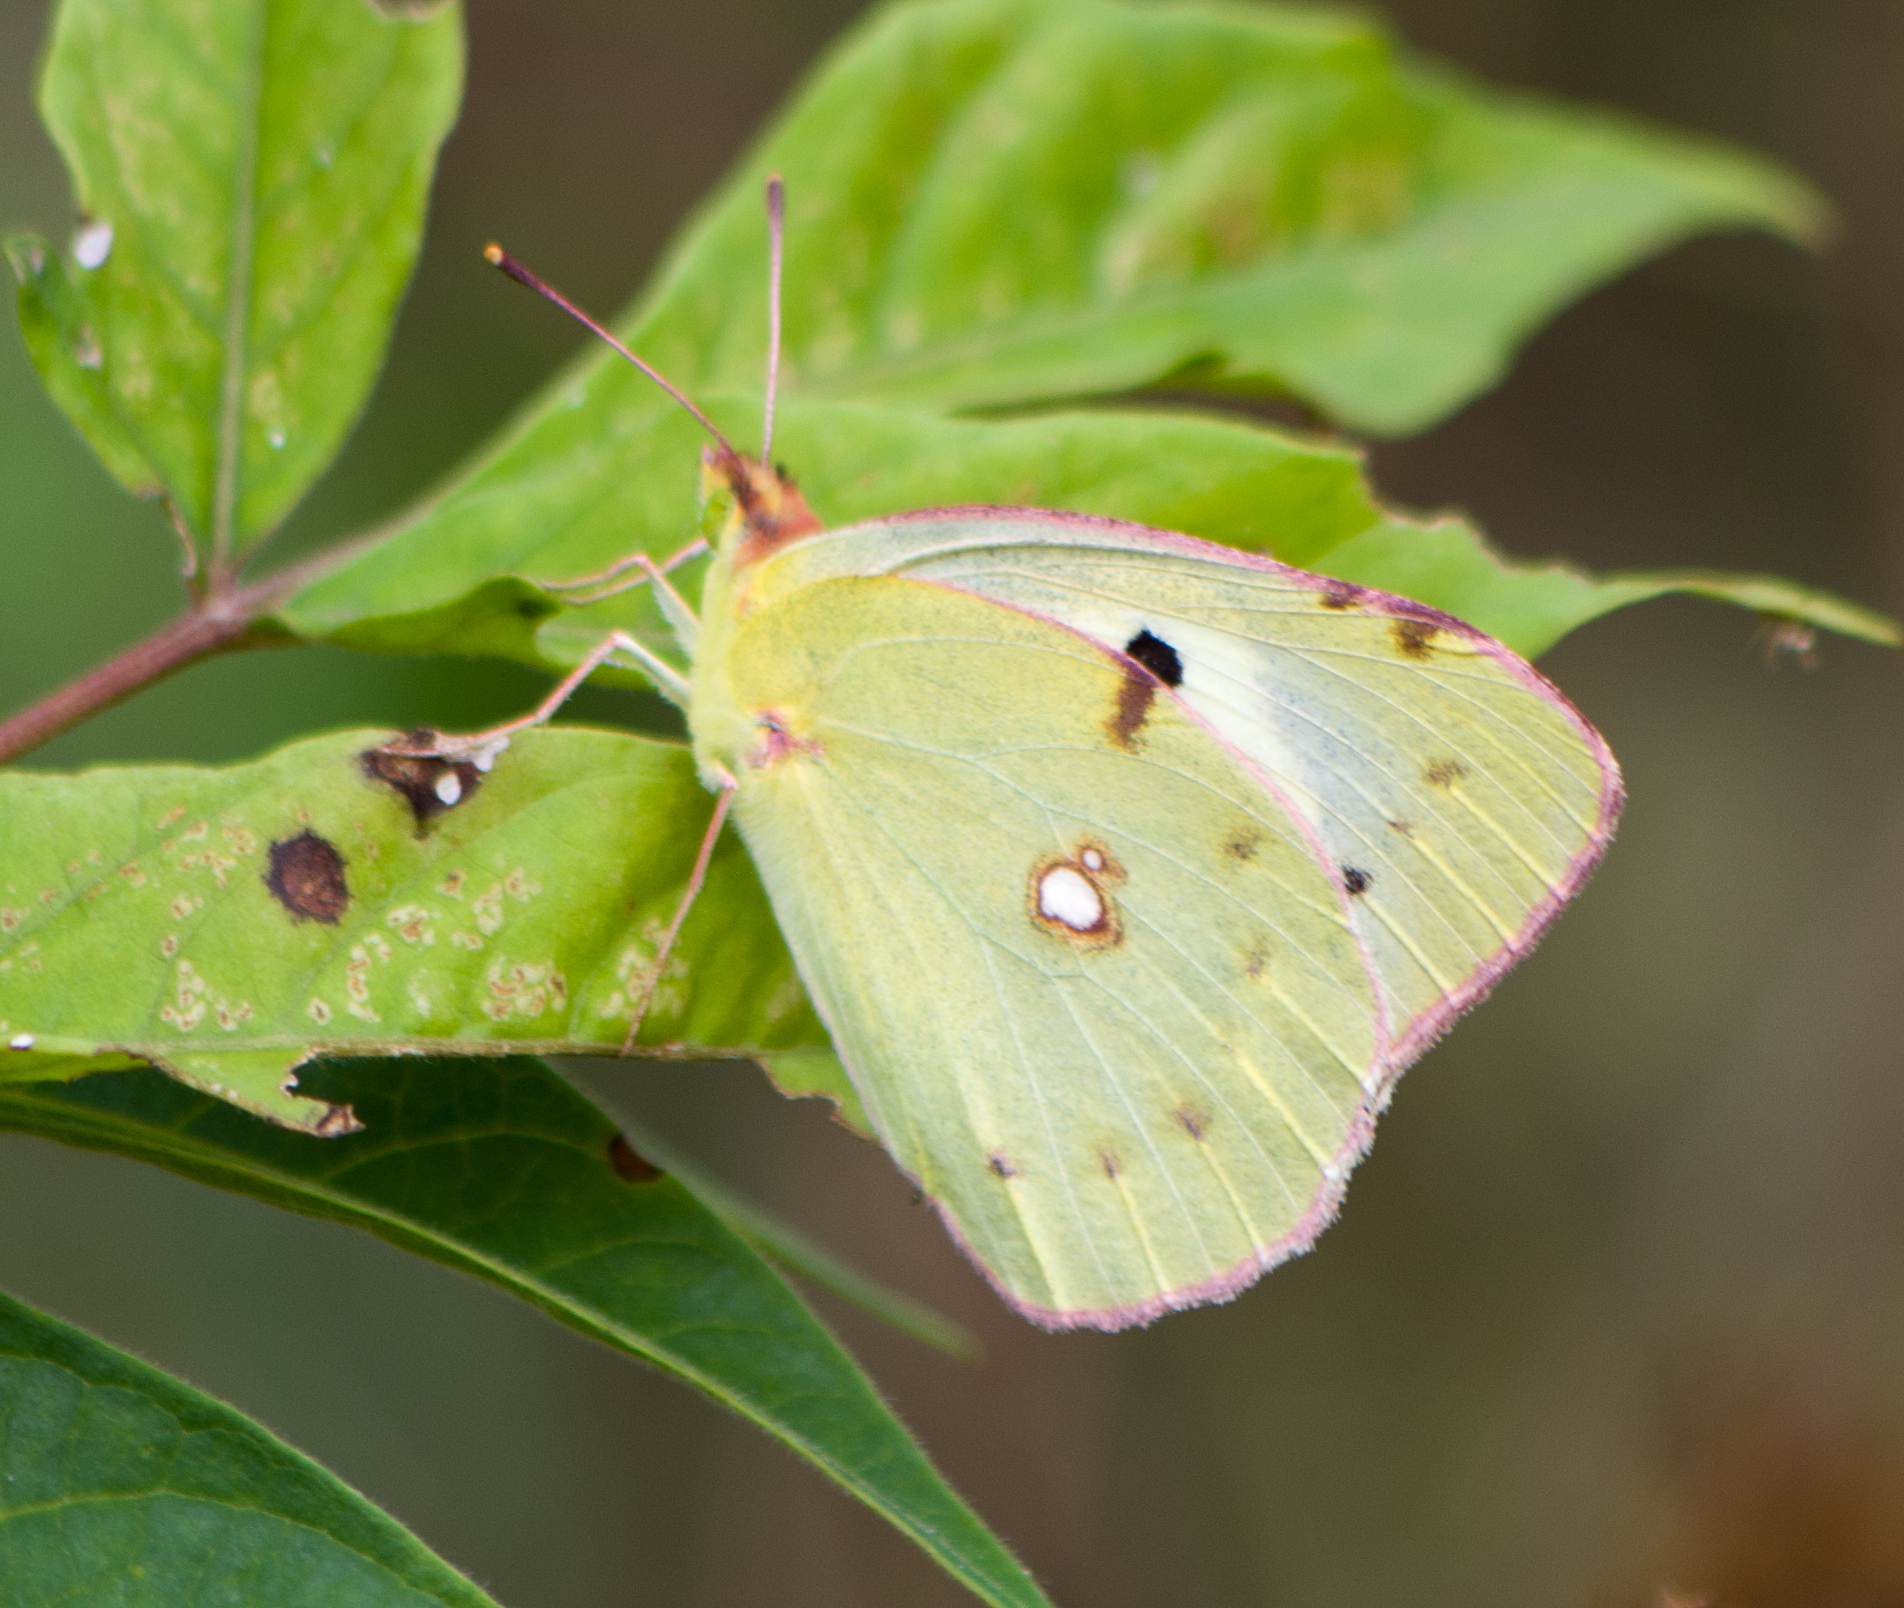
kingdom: Animalia
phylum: Arthropoda
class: Insecta
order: Lepidoptera
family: Pieridae
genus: Colias
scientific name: Colias croceus
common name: Clouded yellow
